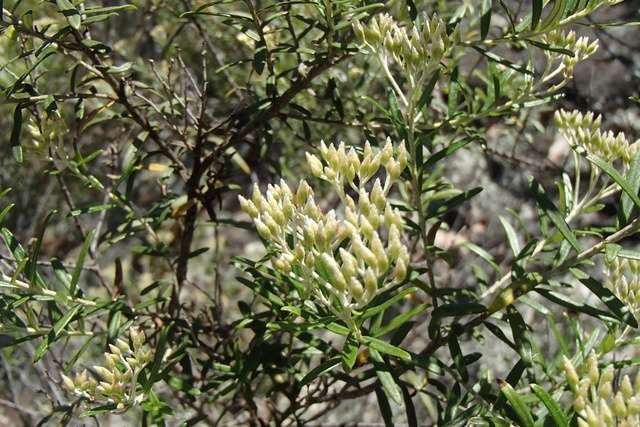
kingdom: Plantae
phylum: Tracheophyta
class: Magnoliopsida
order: Asterales
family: Asteraceae
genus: Ozothamnus
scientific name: Ozothamnus conditus
